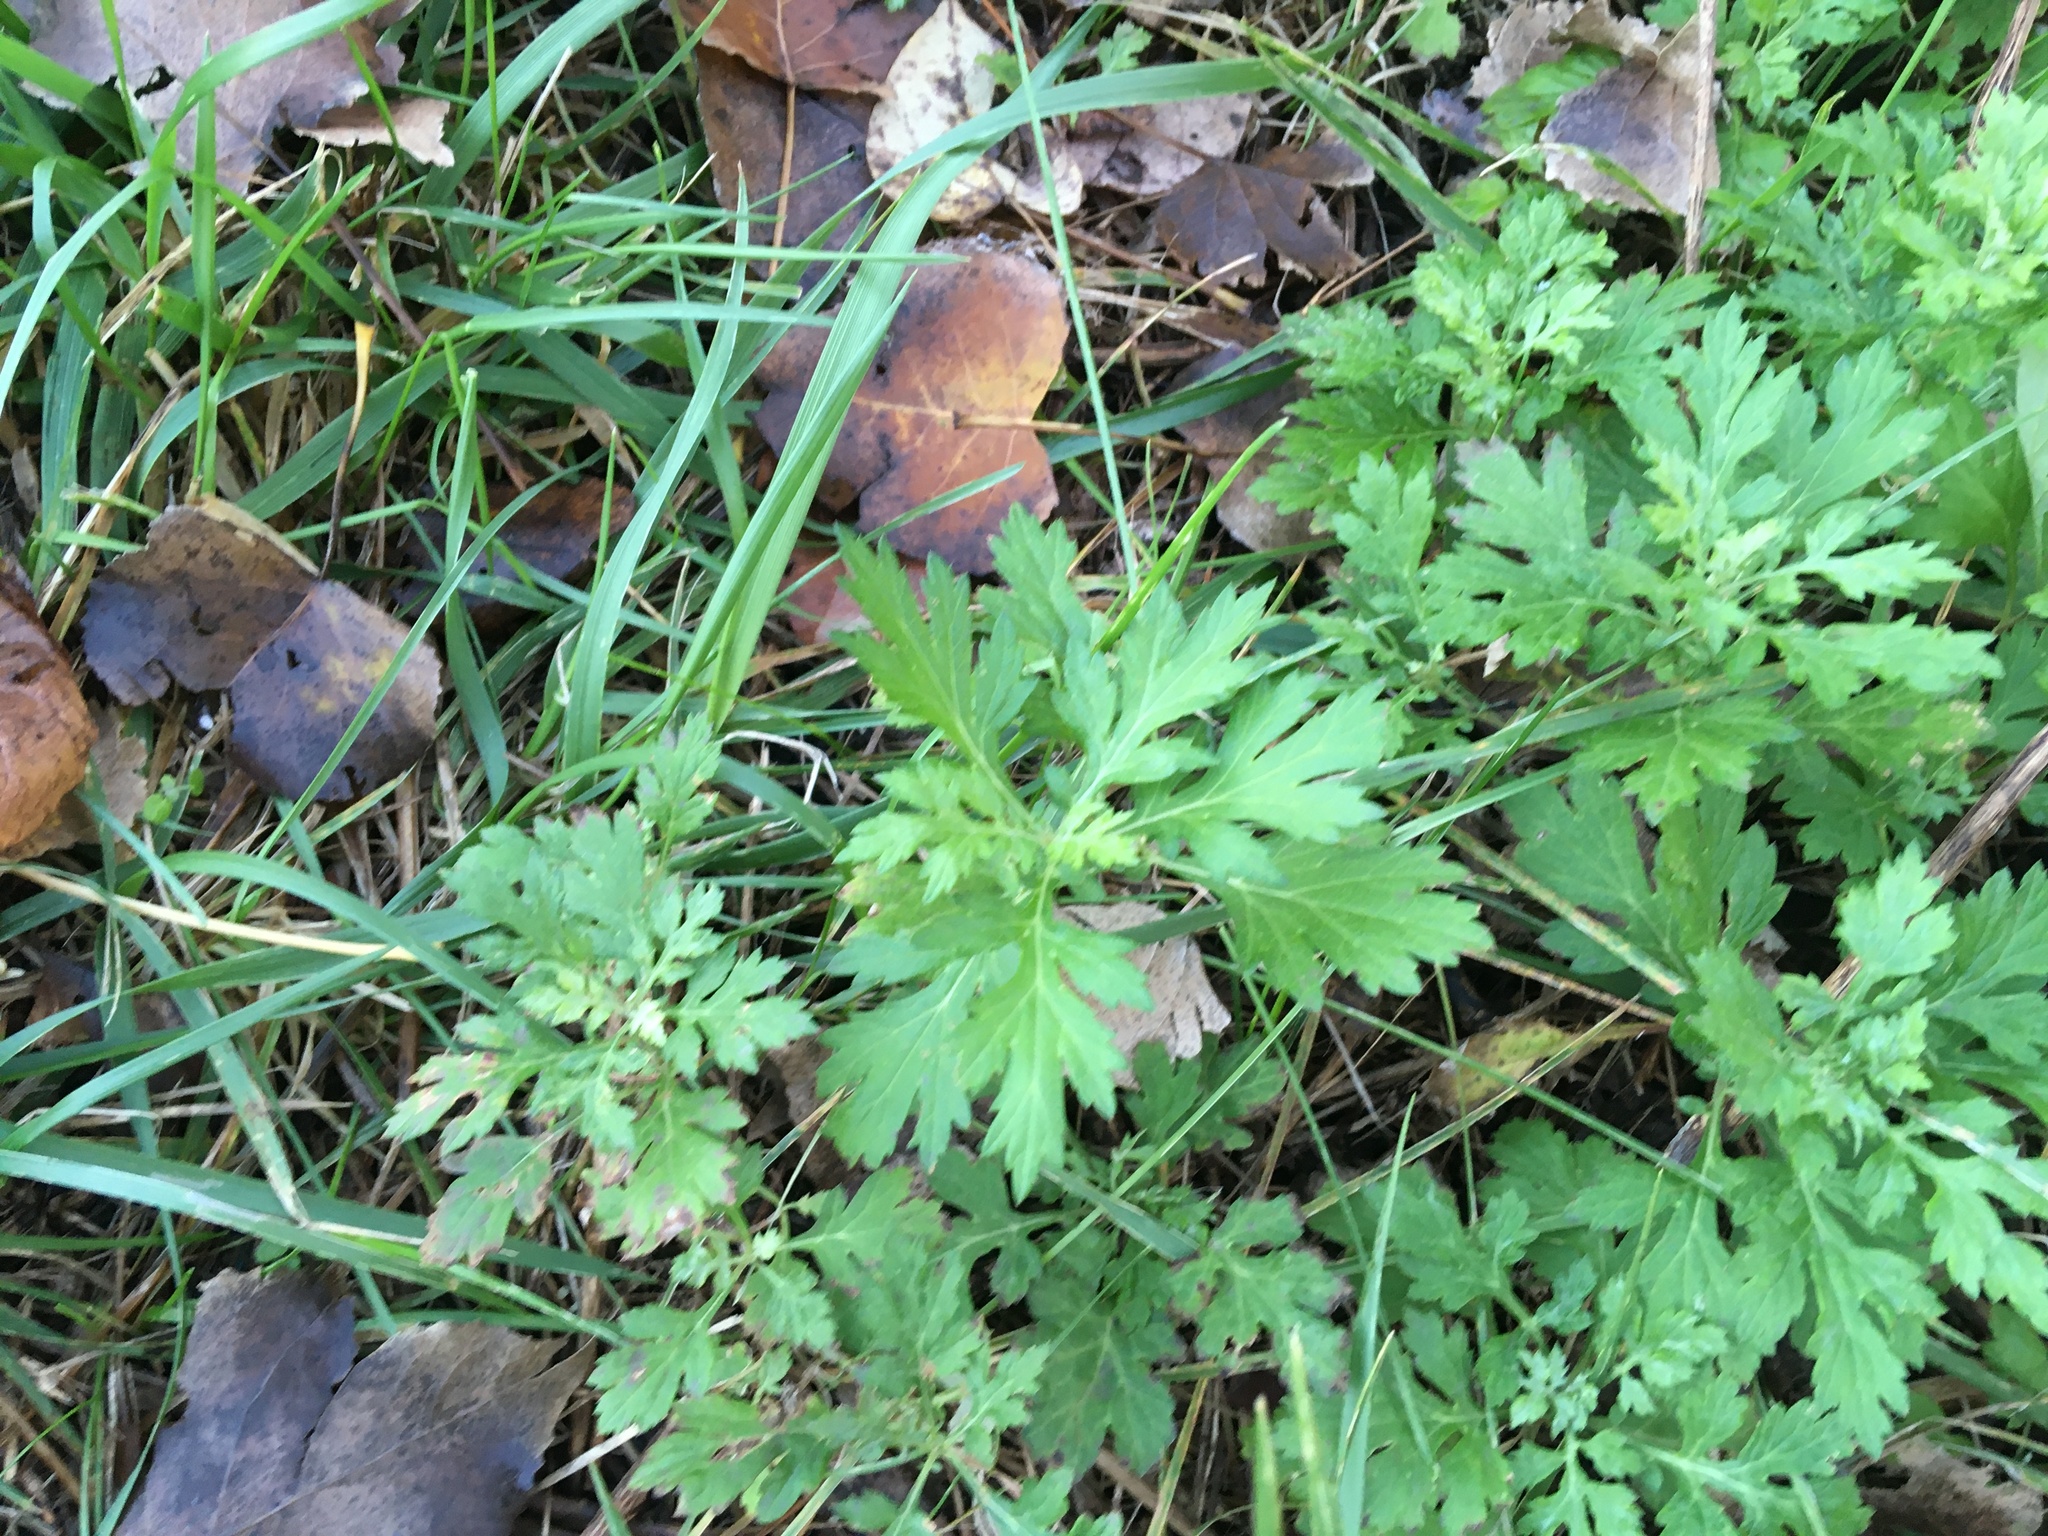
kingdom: Plantae
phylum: Tracheophyta
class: Magnoliopsida
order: Asterales
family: Asteraceae
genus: Artemisia
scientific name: Artemisia vulgaris
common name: Mugwort
